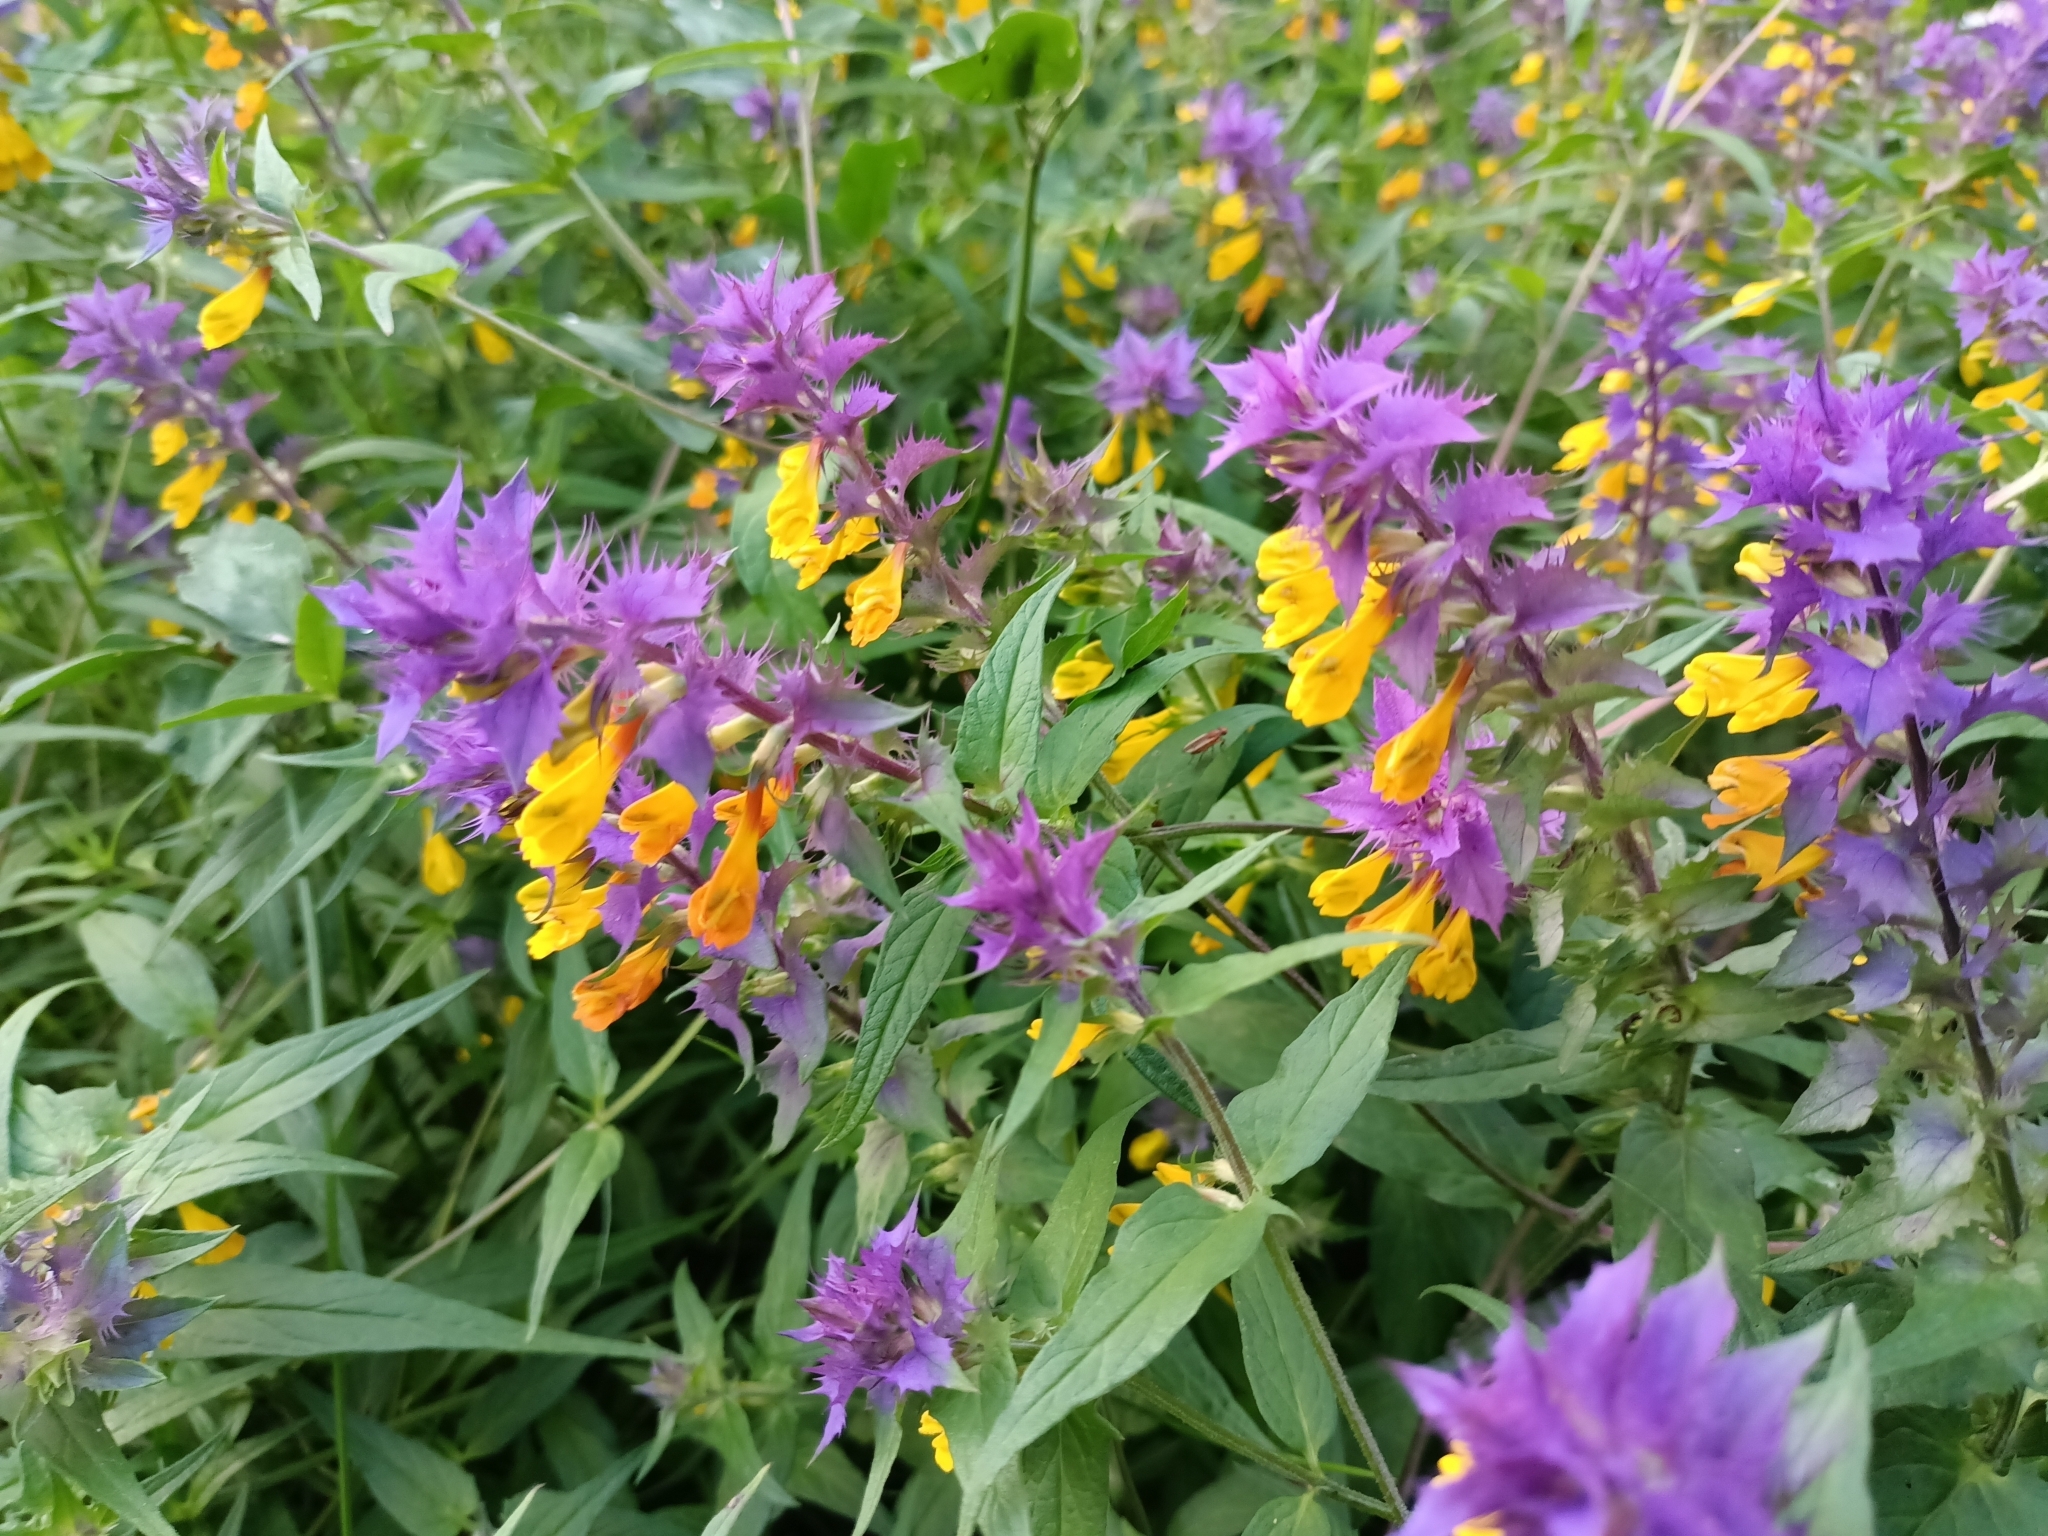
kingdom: Plantae
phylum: Tracheophyta
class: Magnoliopsida
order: Lamiales
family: Orobanchaceae
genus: Melampyrum
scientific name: Melampyrum nemorosum
